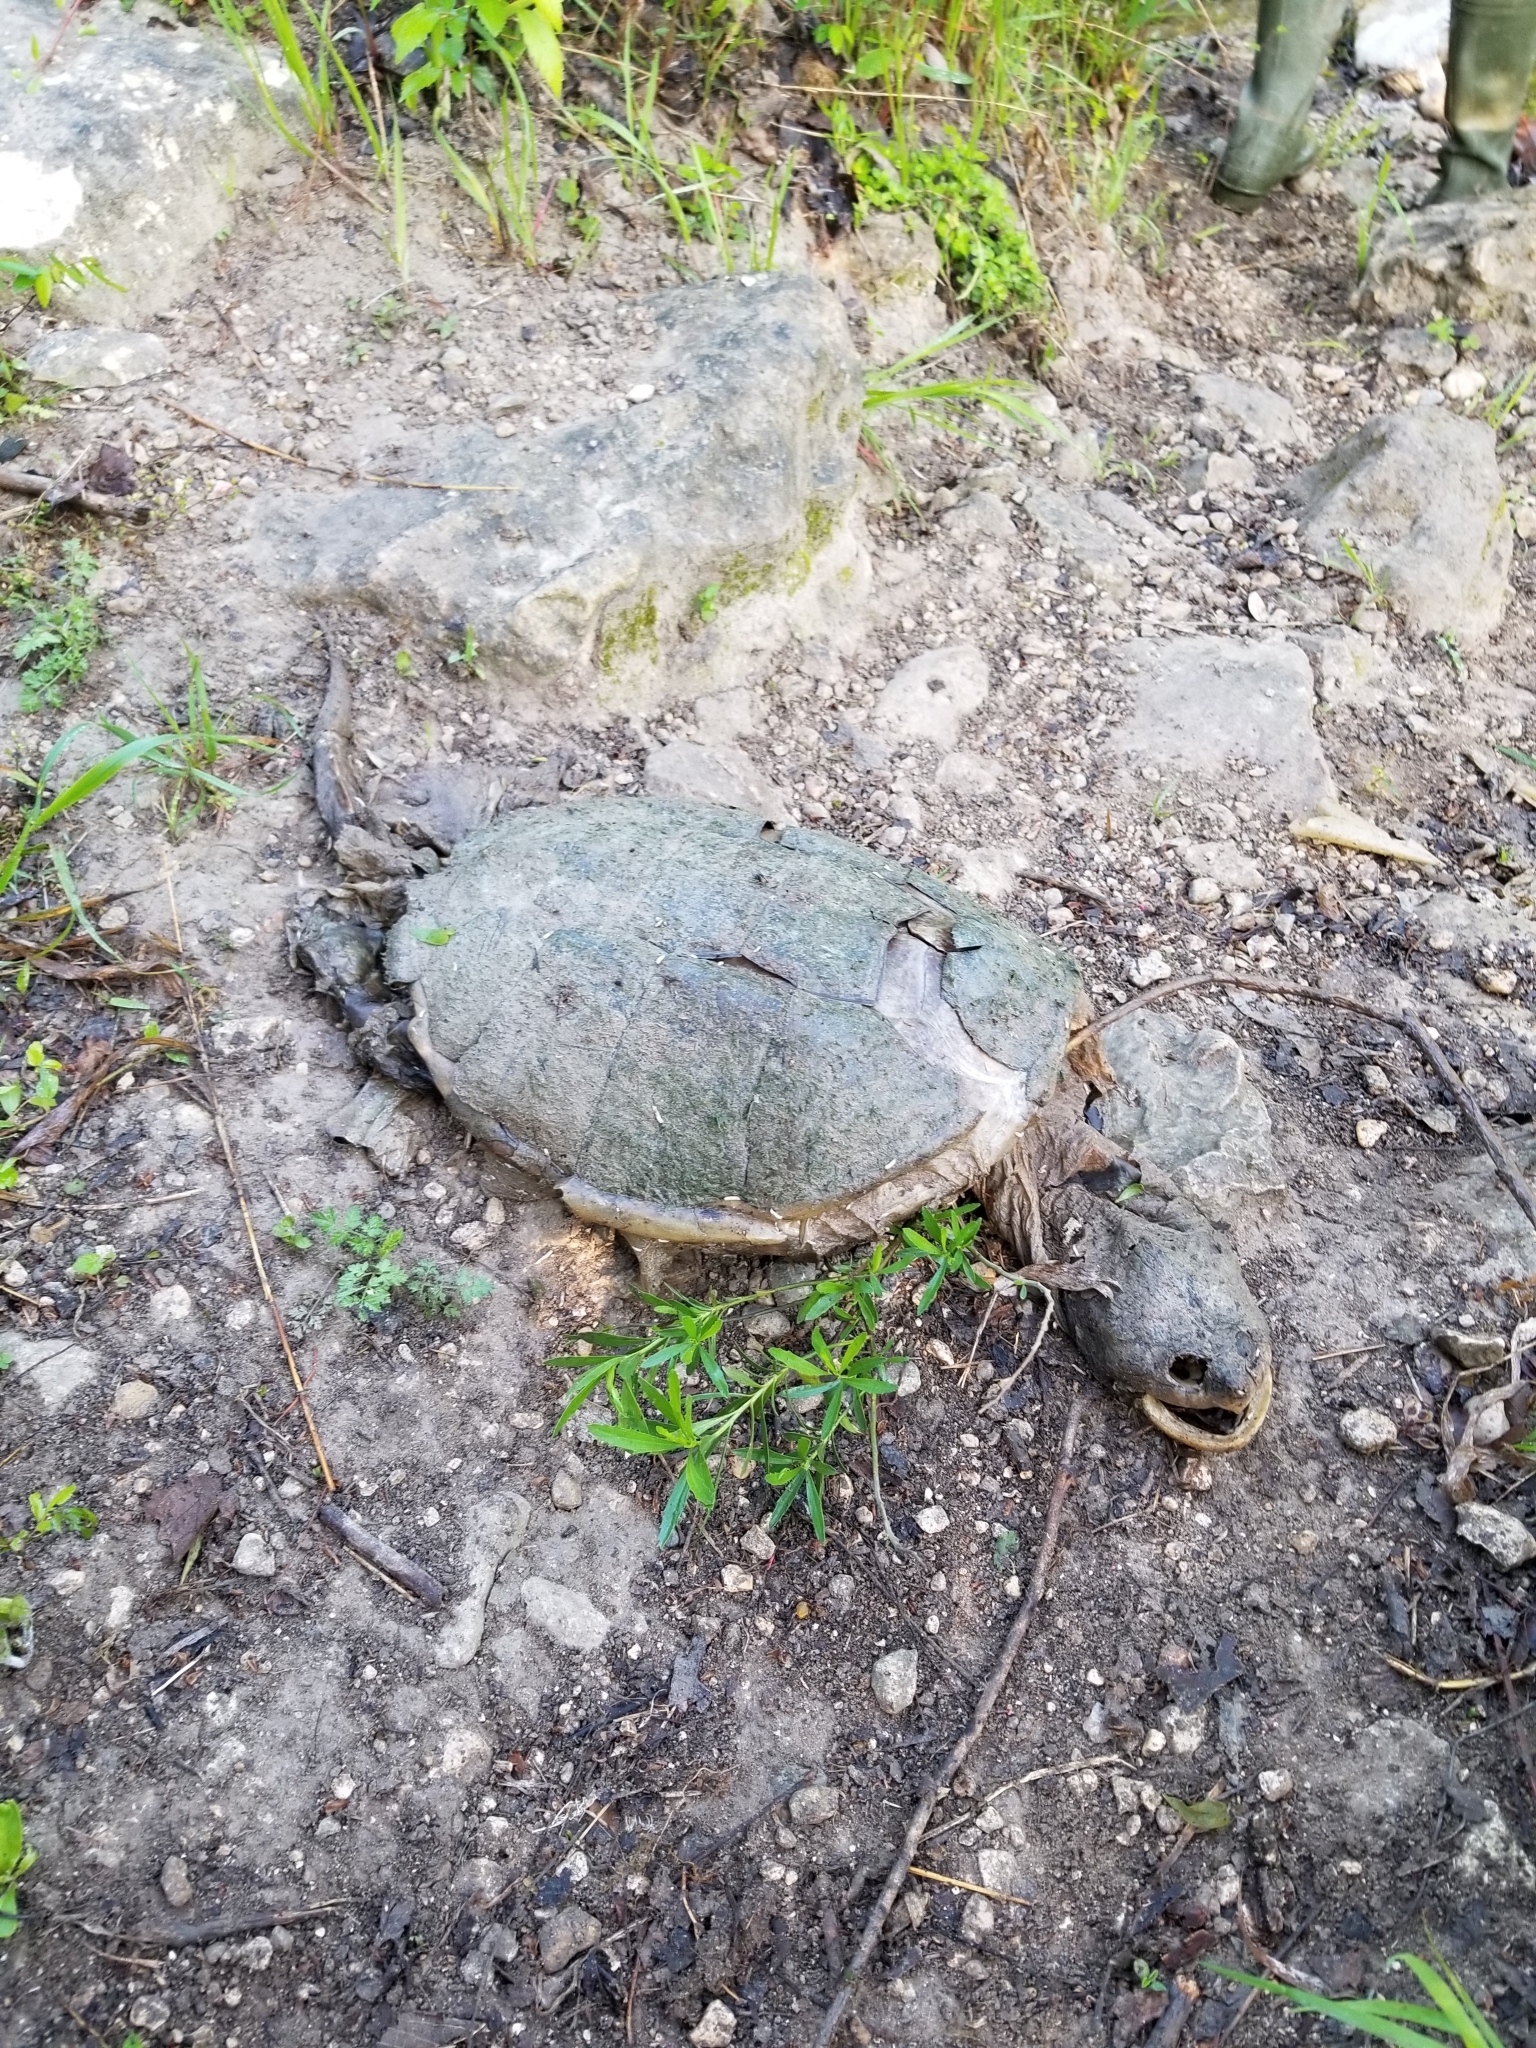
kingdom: Animalia
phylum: Chordata
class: Testudines
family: Chelydridae
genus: Chelydra
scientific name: Chelydra serpentina
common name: Common snapping turtle
